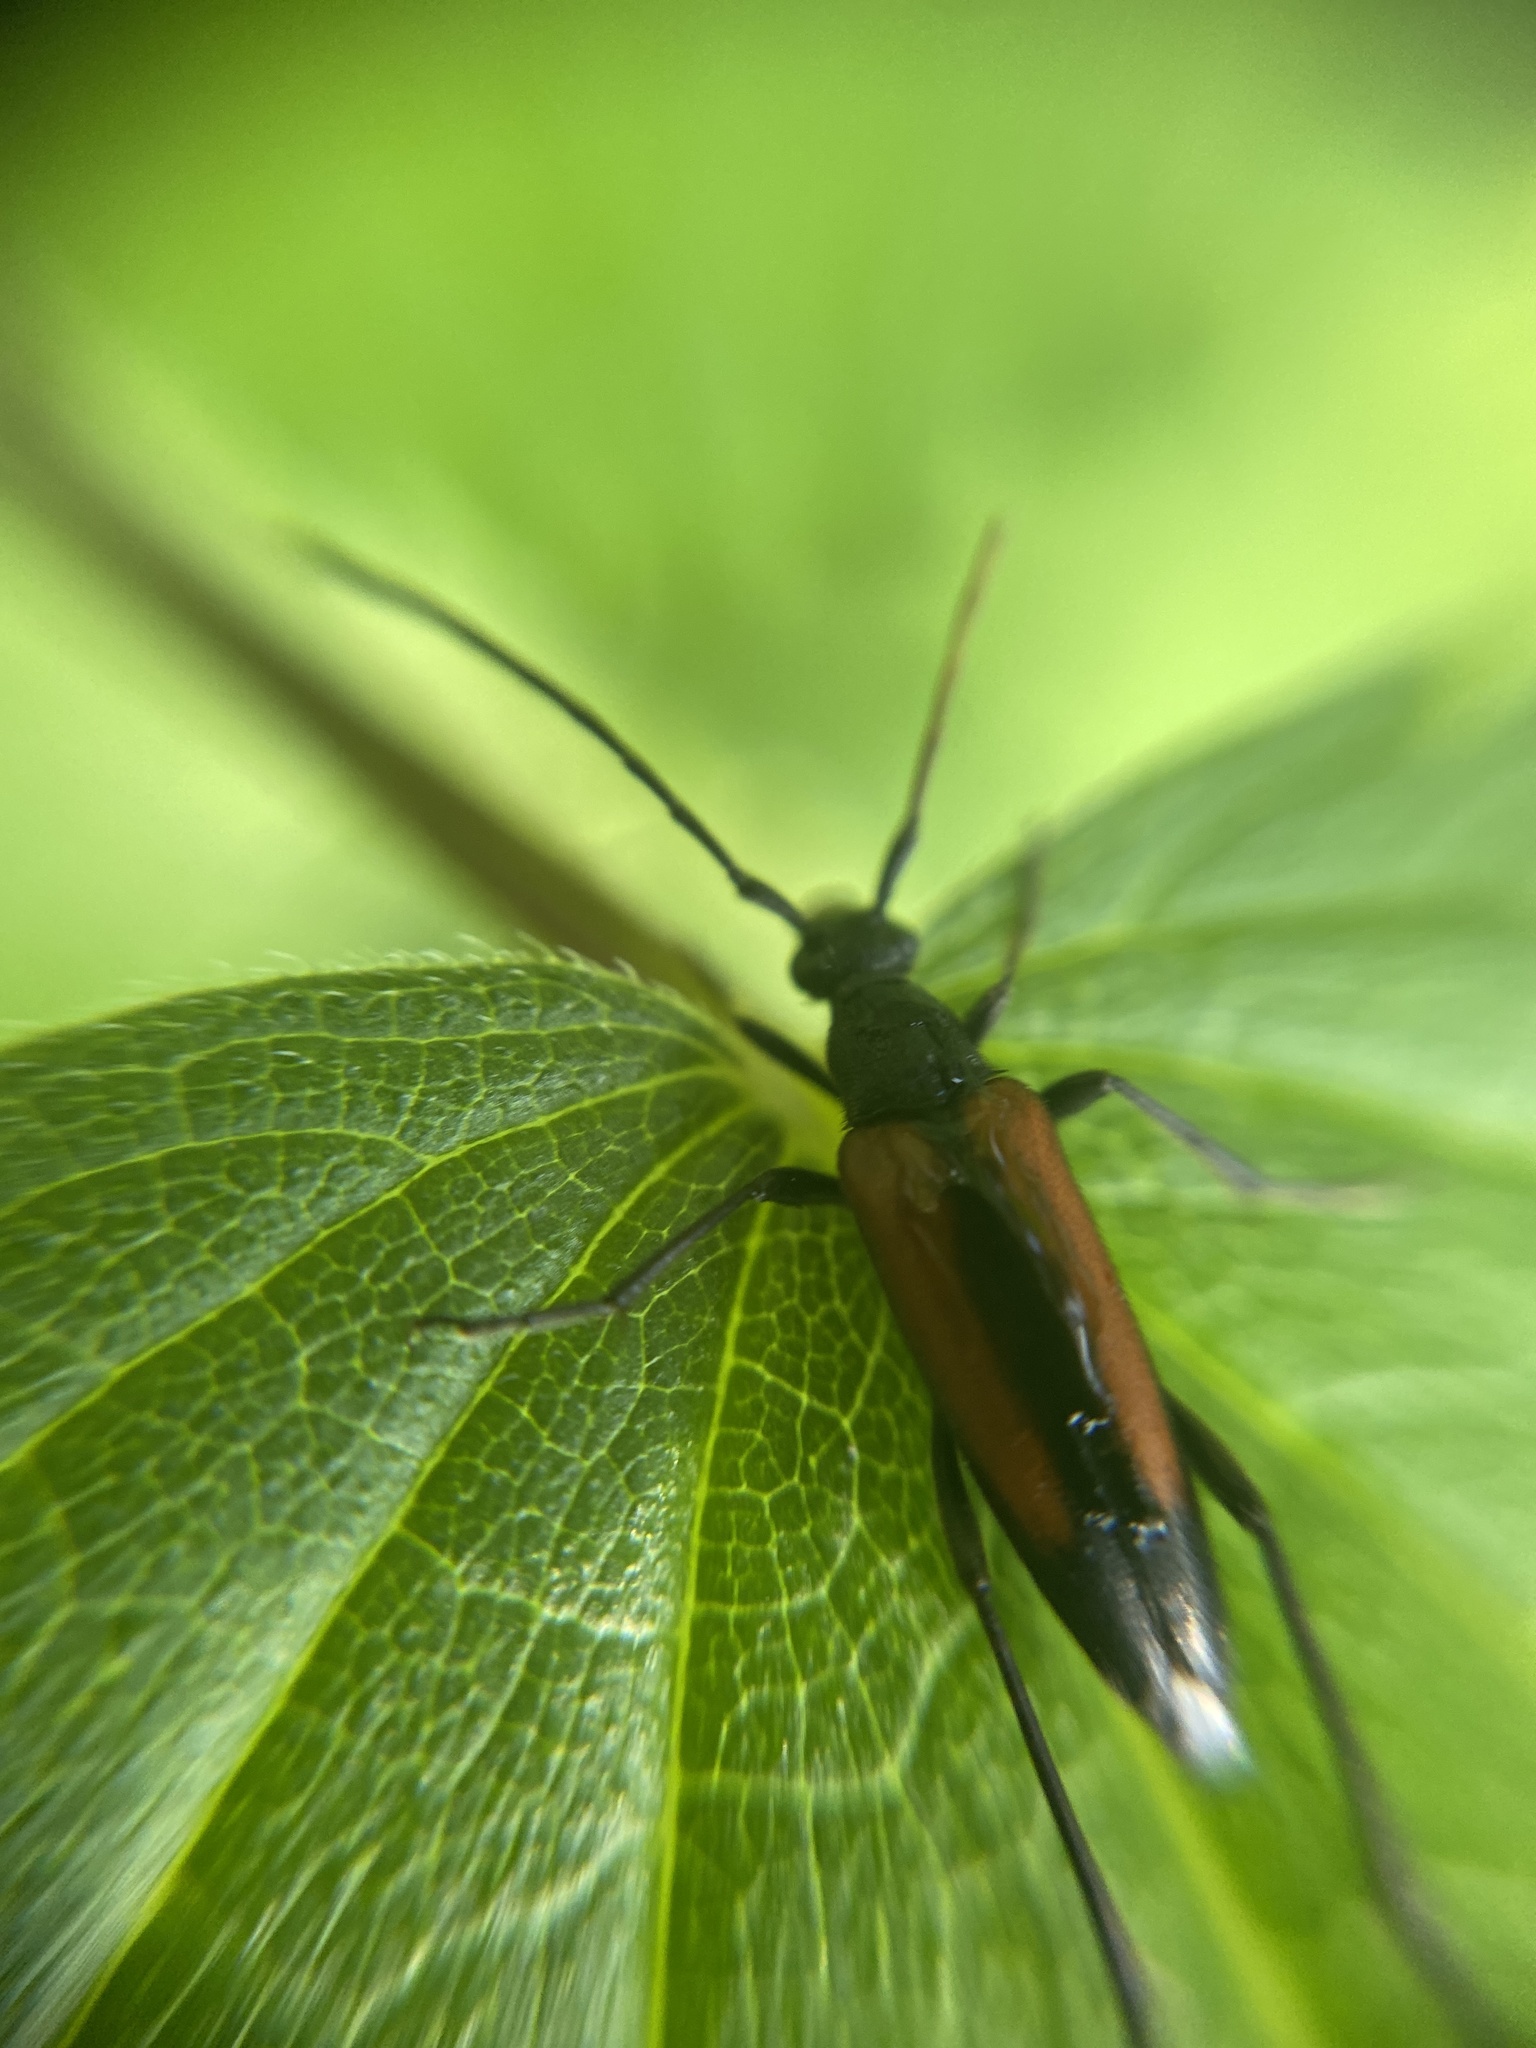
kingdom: Animalia
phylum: Arthropoda
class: Insecta
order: Coleoptera
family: Cerambycidae
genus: Stenurella
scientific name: Stenurella melanura
